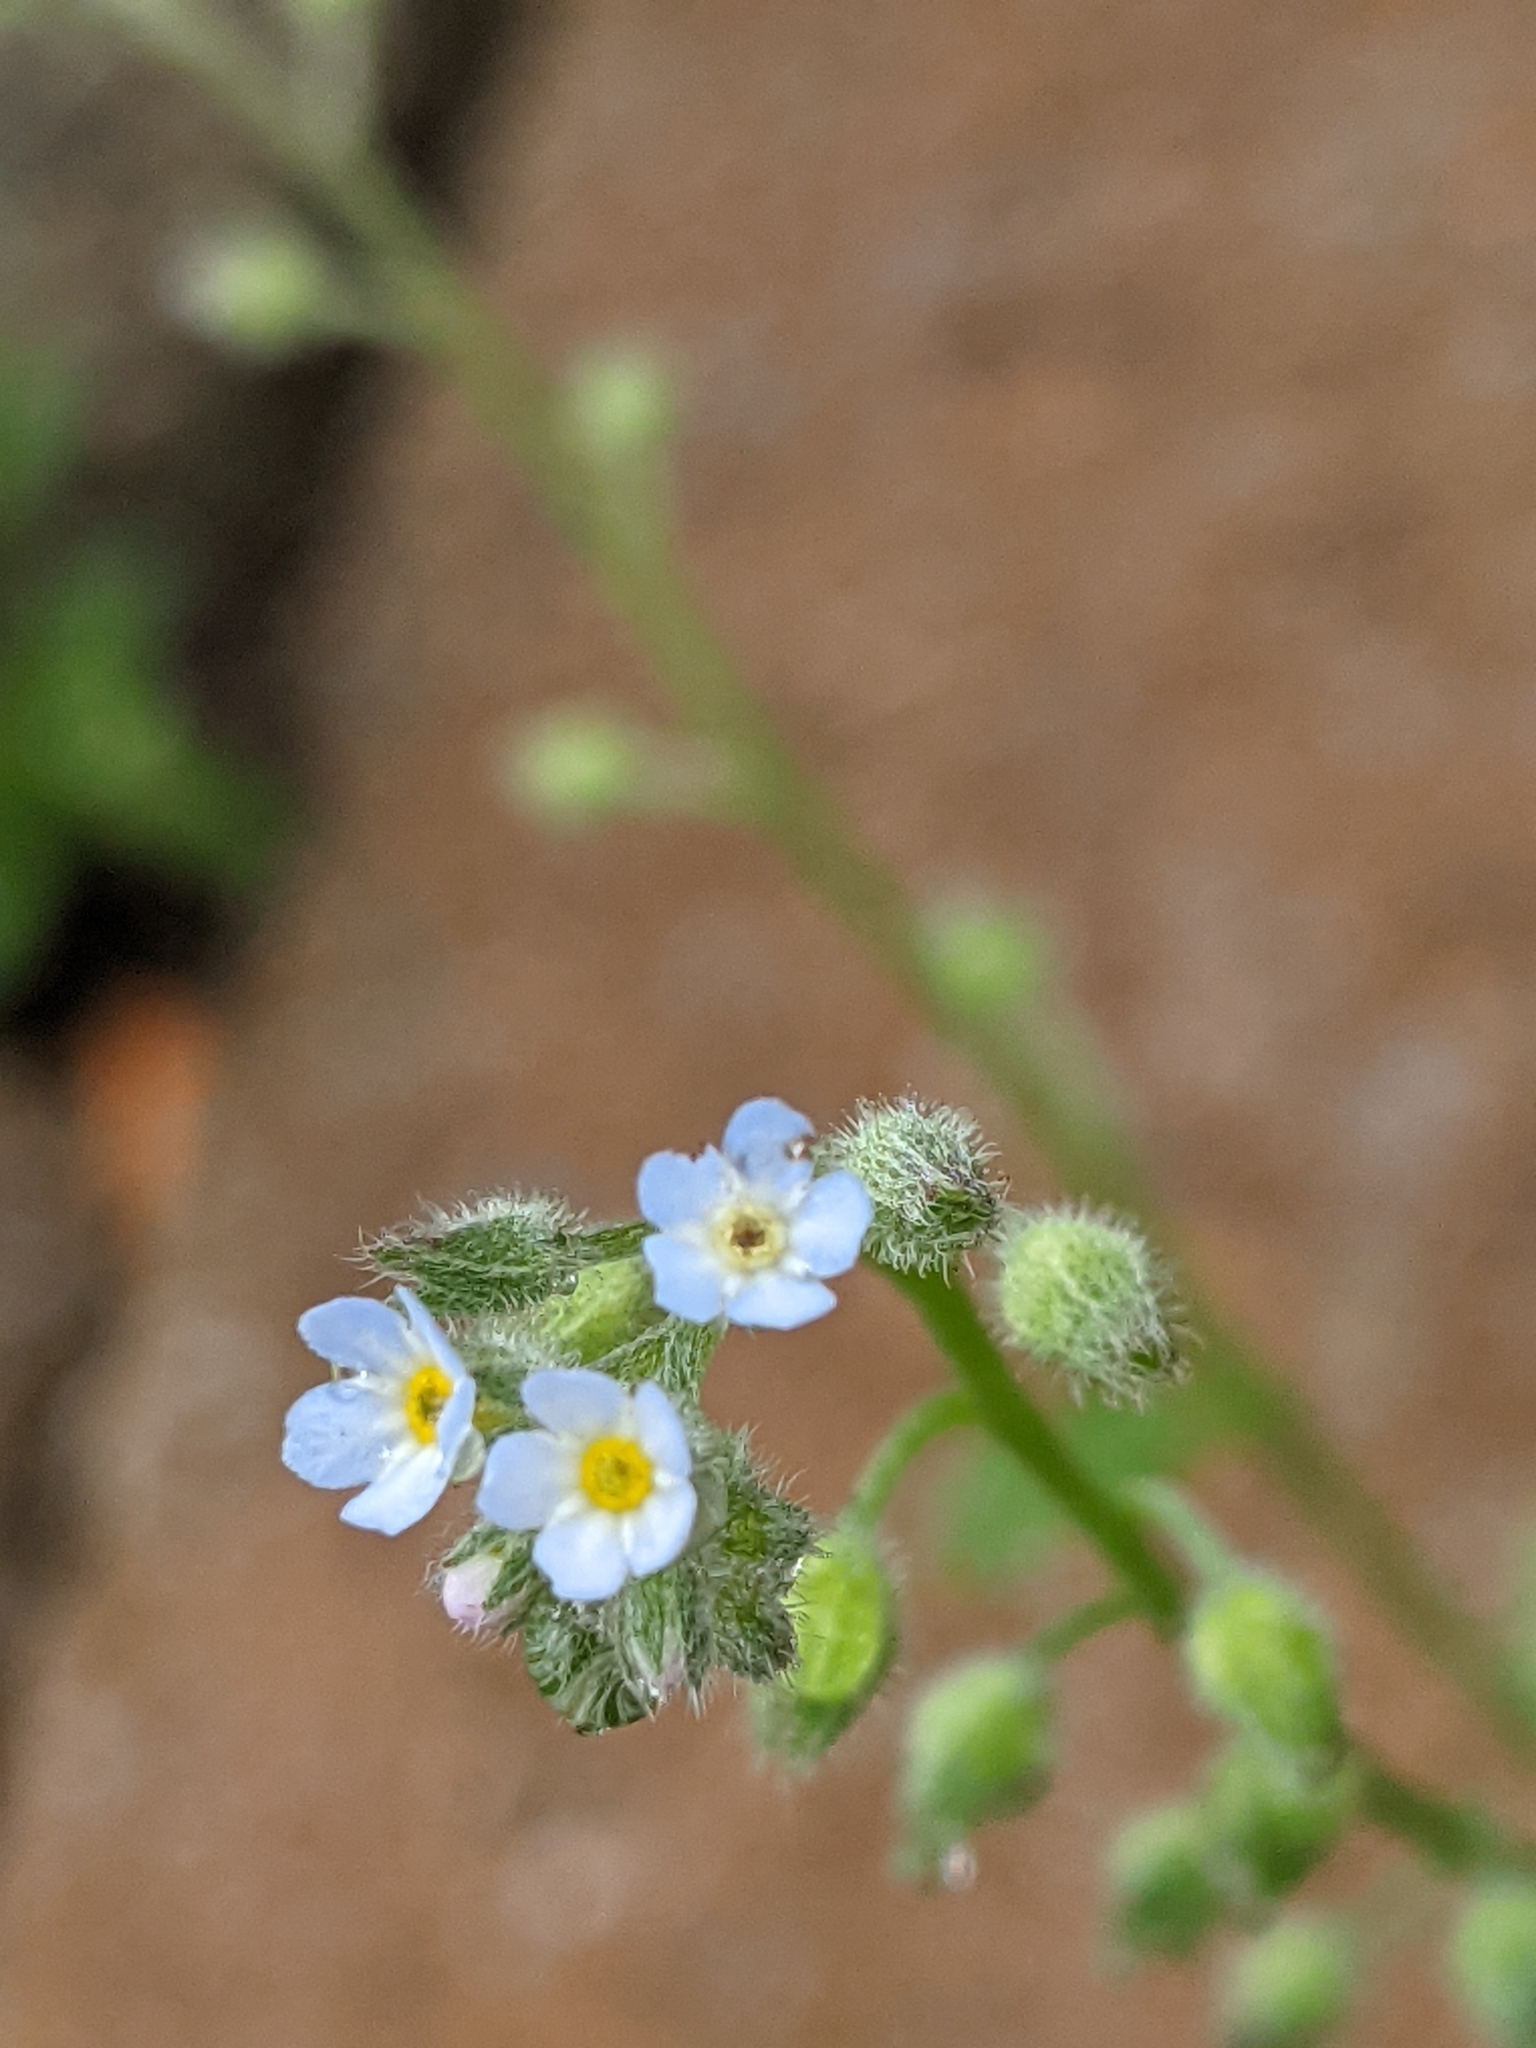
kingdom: Plantae
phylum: Tracheophyta
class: Magnoliopsida
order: Boraginales
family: Boraginaceae
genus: Myosotis
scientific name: Myosotis arvensis
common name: Field forget-me-not
